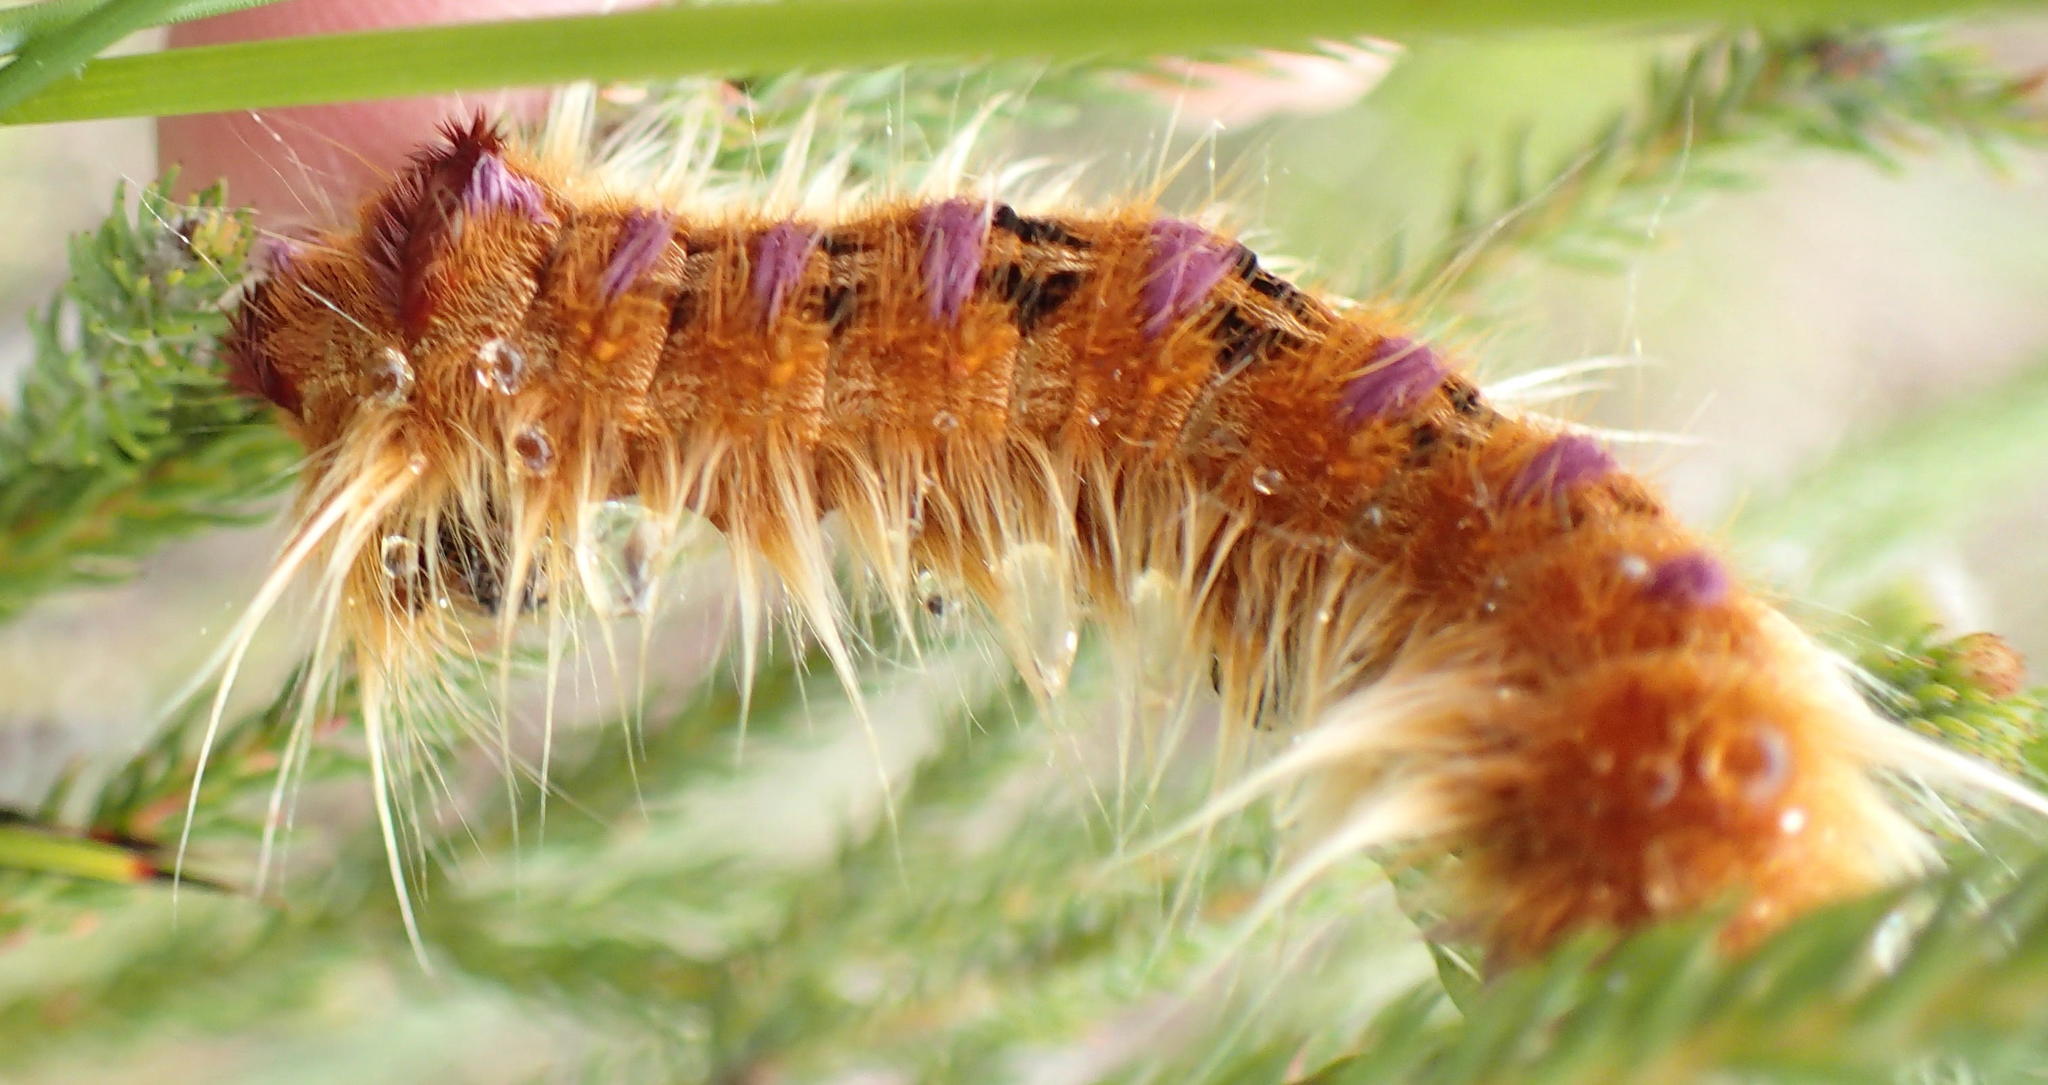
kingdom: Animalia
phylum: Arthropoda
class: Insecta
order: Lepidoptera
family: Lasiocampidae
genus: Eutricha
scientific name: Eutricha bifascia
